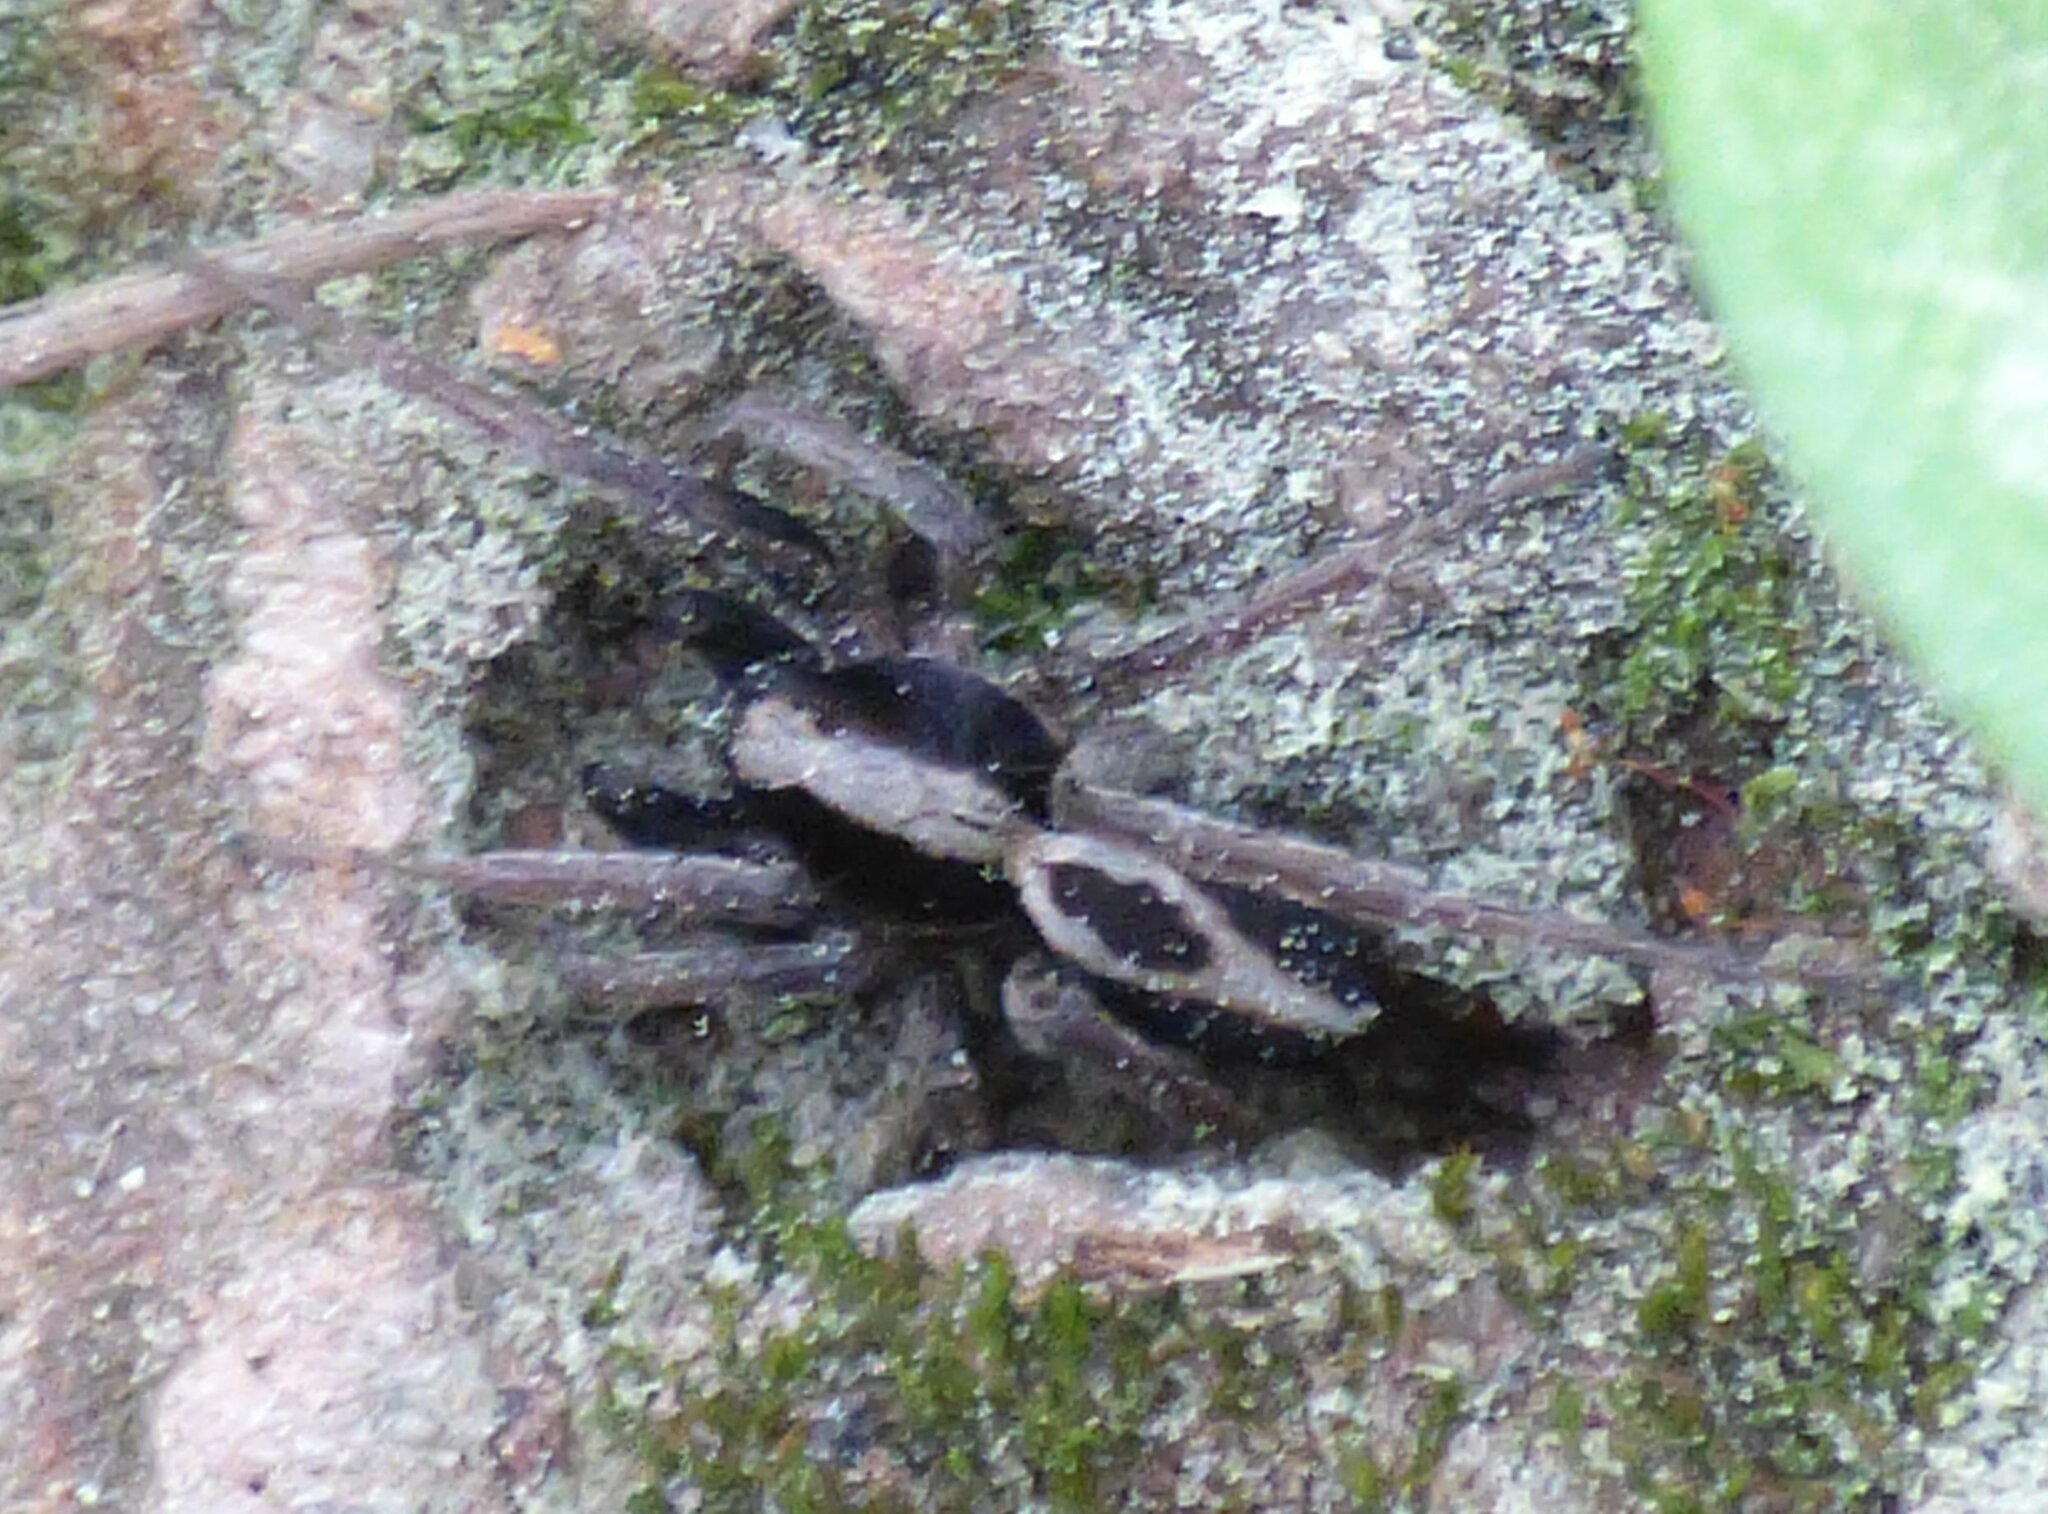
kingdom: Animalia
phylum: Arthropoda
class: Arachnida
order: Araneae
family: Lycosidae
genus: Alopecosa
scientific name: Alopecosa albofasciata
